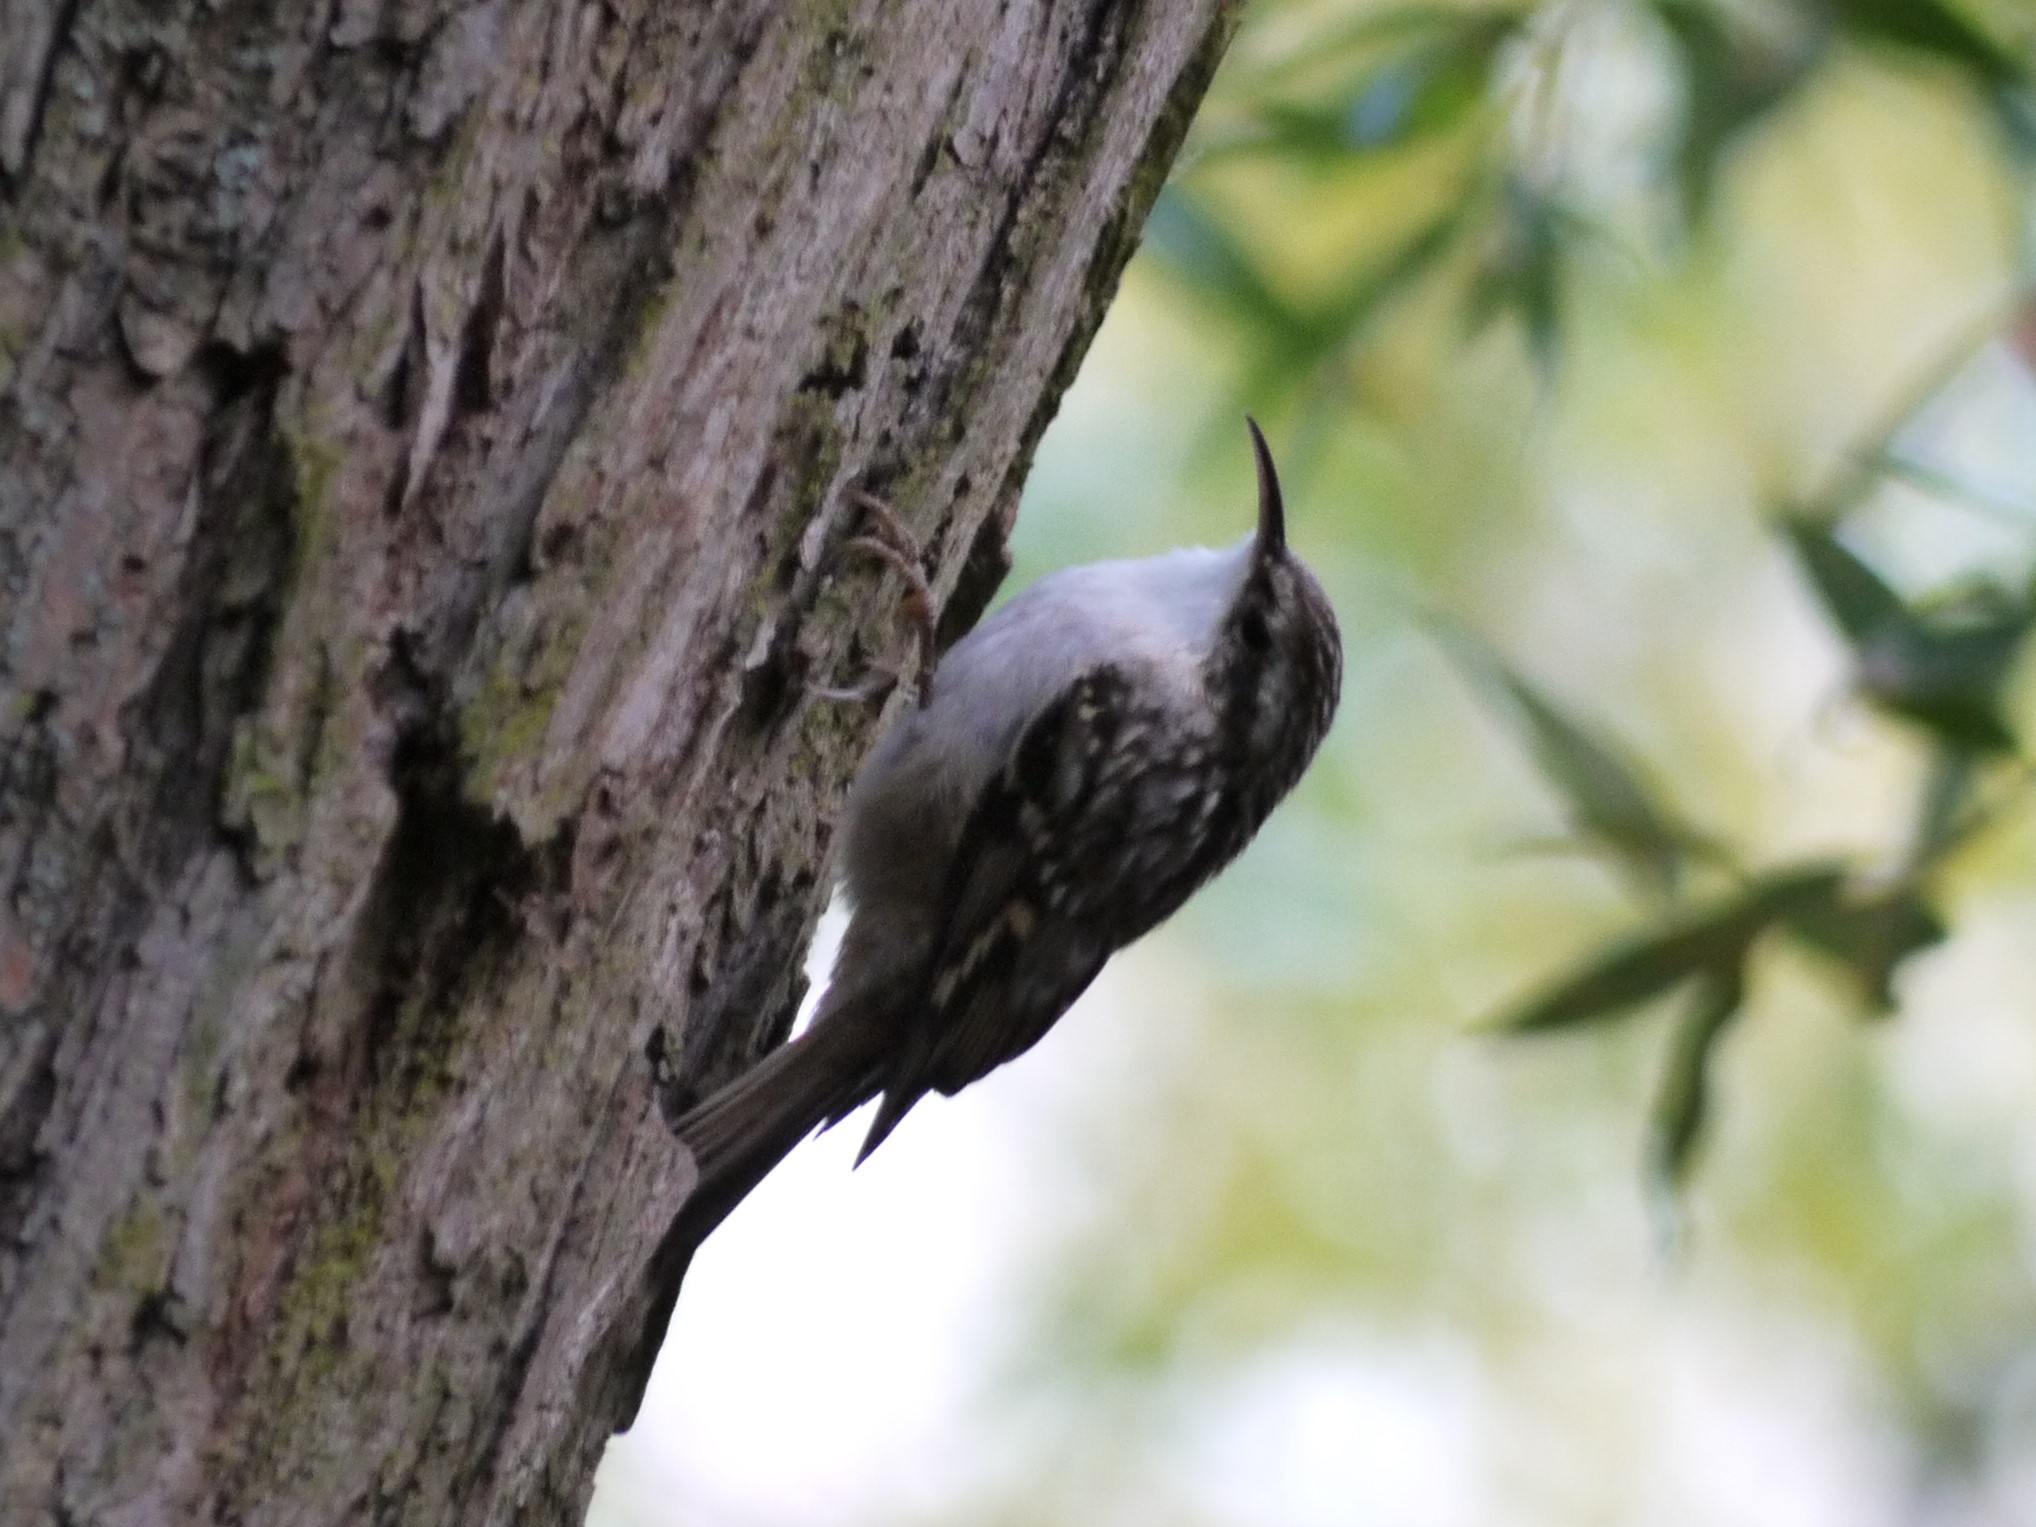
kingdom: Animalia
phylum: Chordata
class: Aves
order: Passeriformes
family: Certhiidae
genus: Certhia
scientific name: Certhia brachydactyla
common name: Short-toed treecreeper
